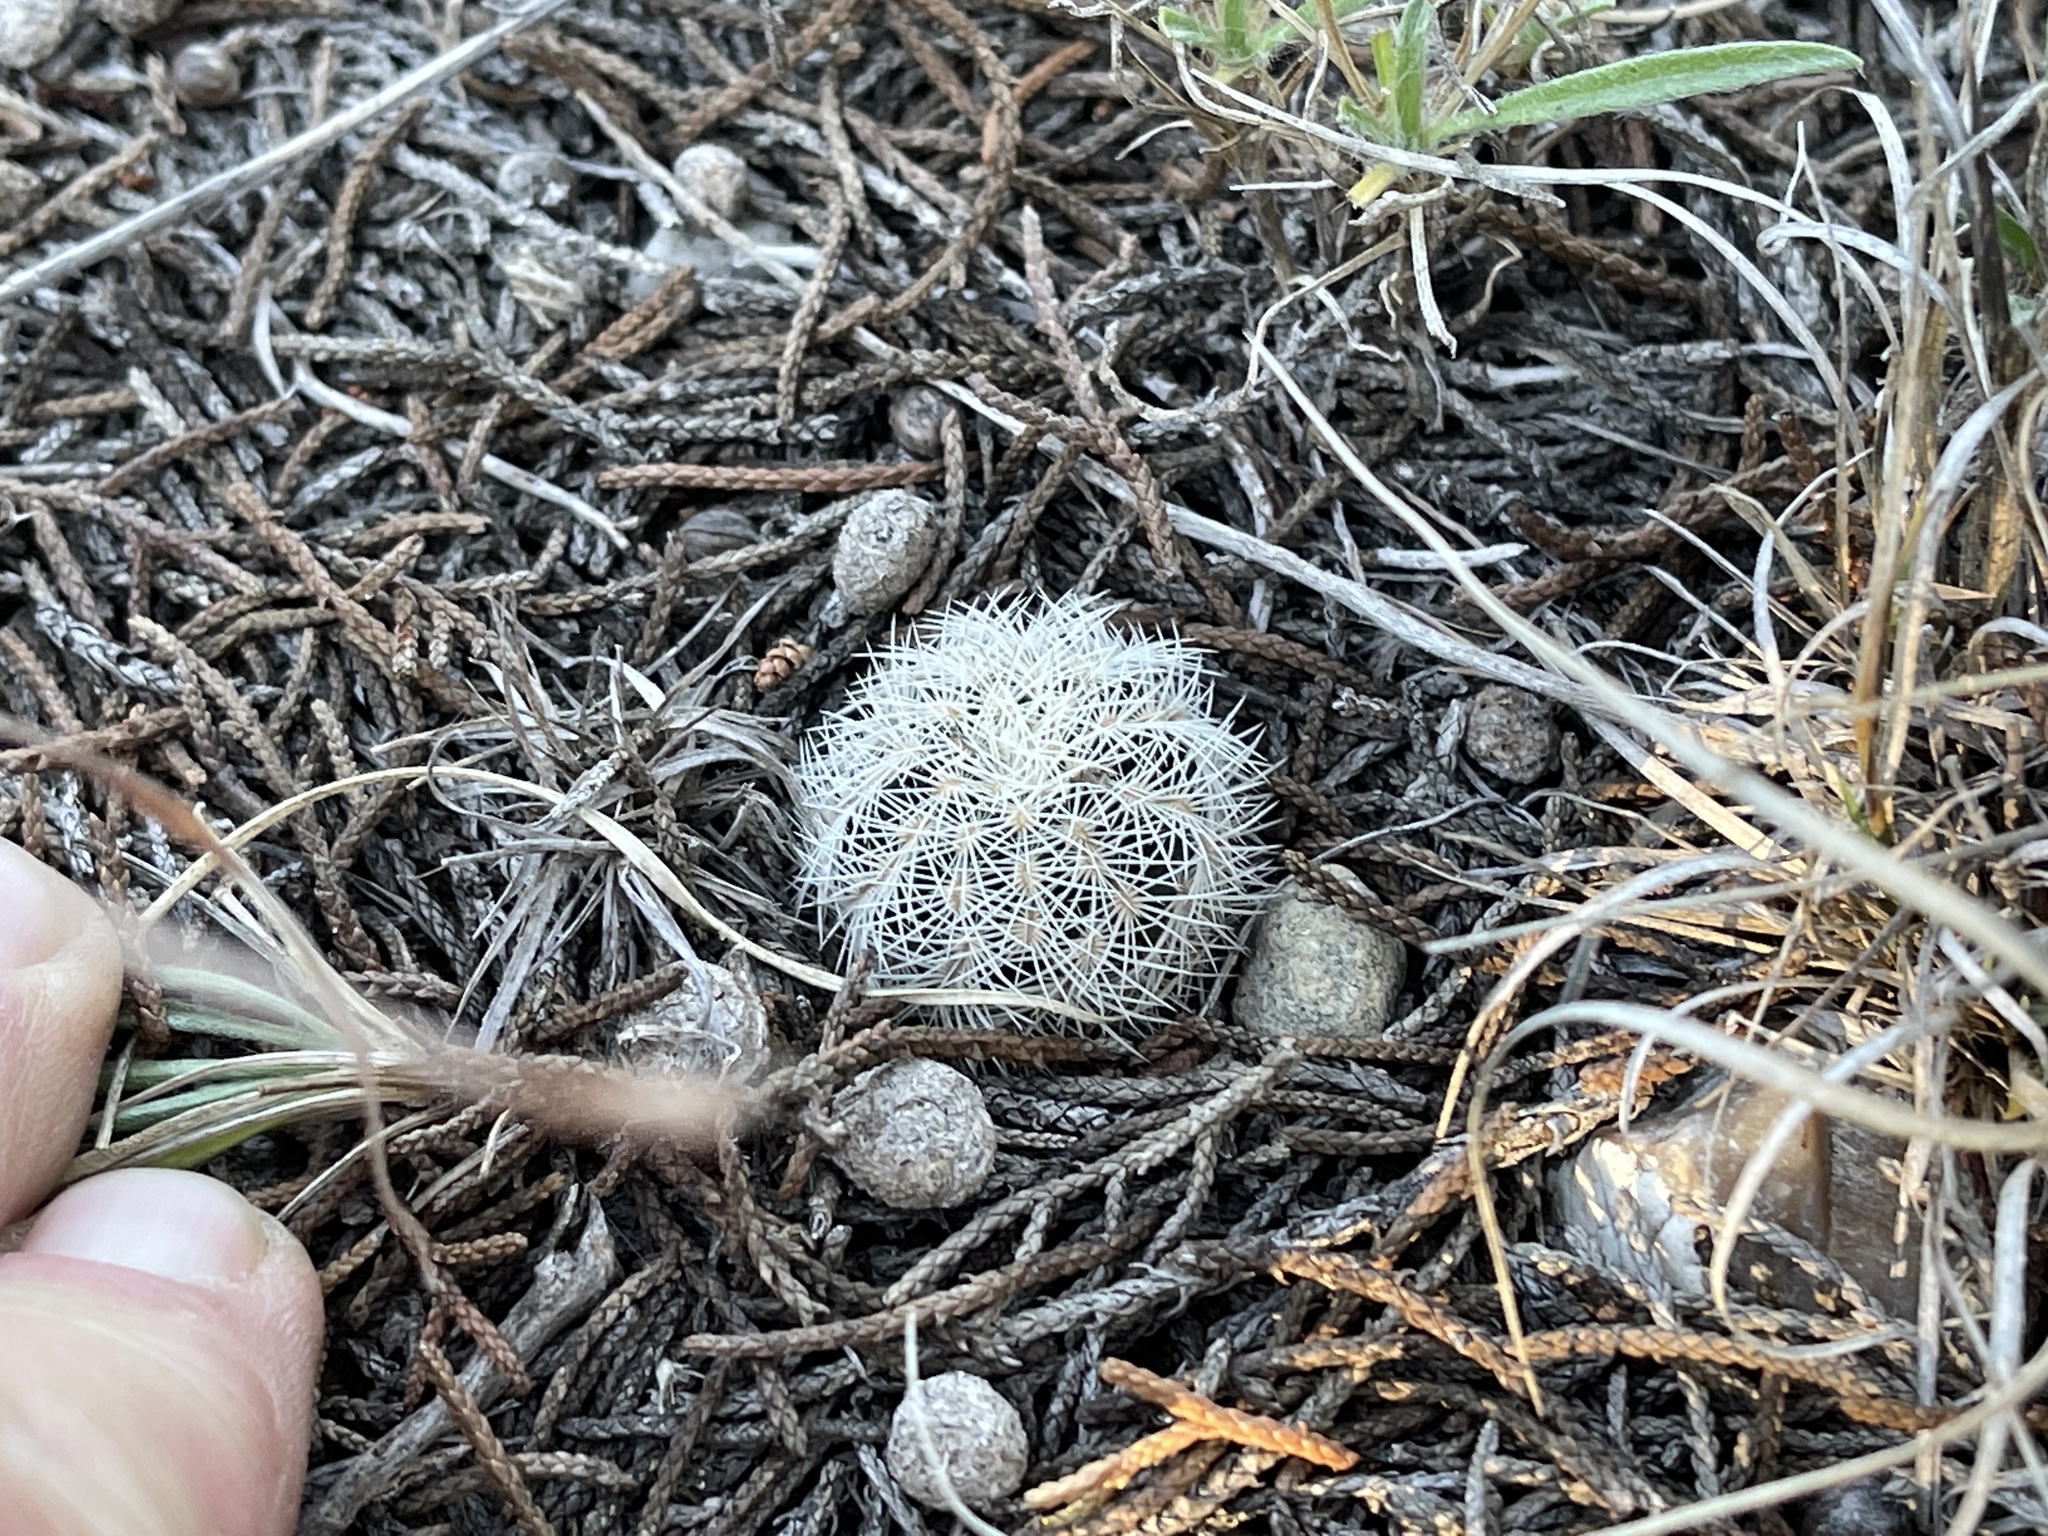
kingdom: Plantae
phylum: Tracheophyta
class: Magnoliopsida
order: Caryophyllales
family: Cactaceae
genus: Echinocereus
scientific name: Echinocereus reichenbachii
